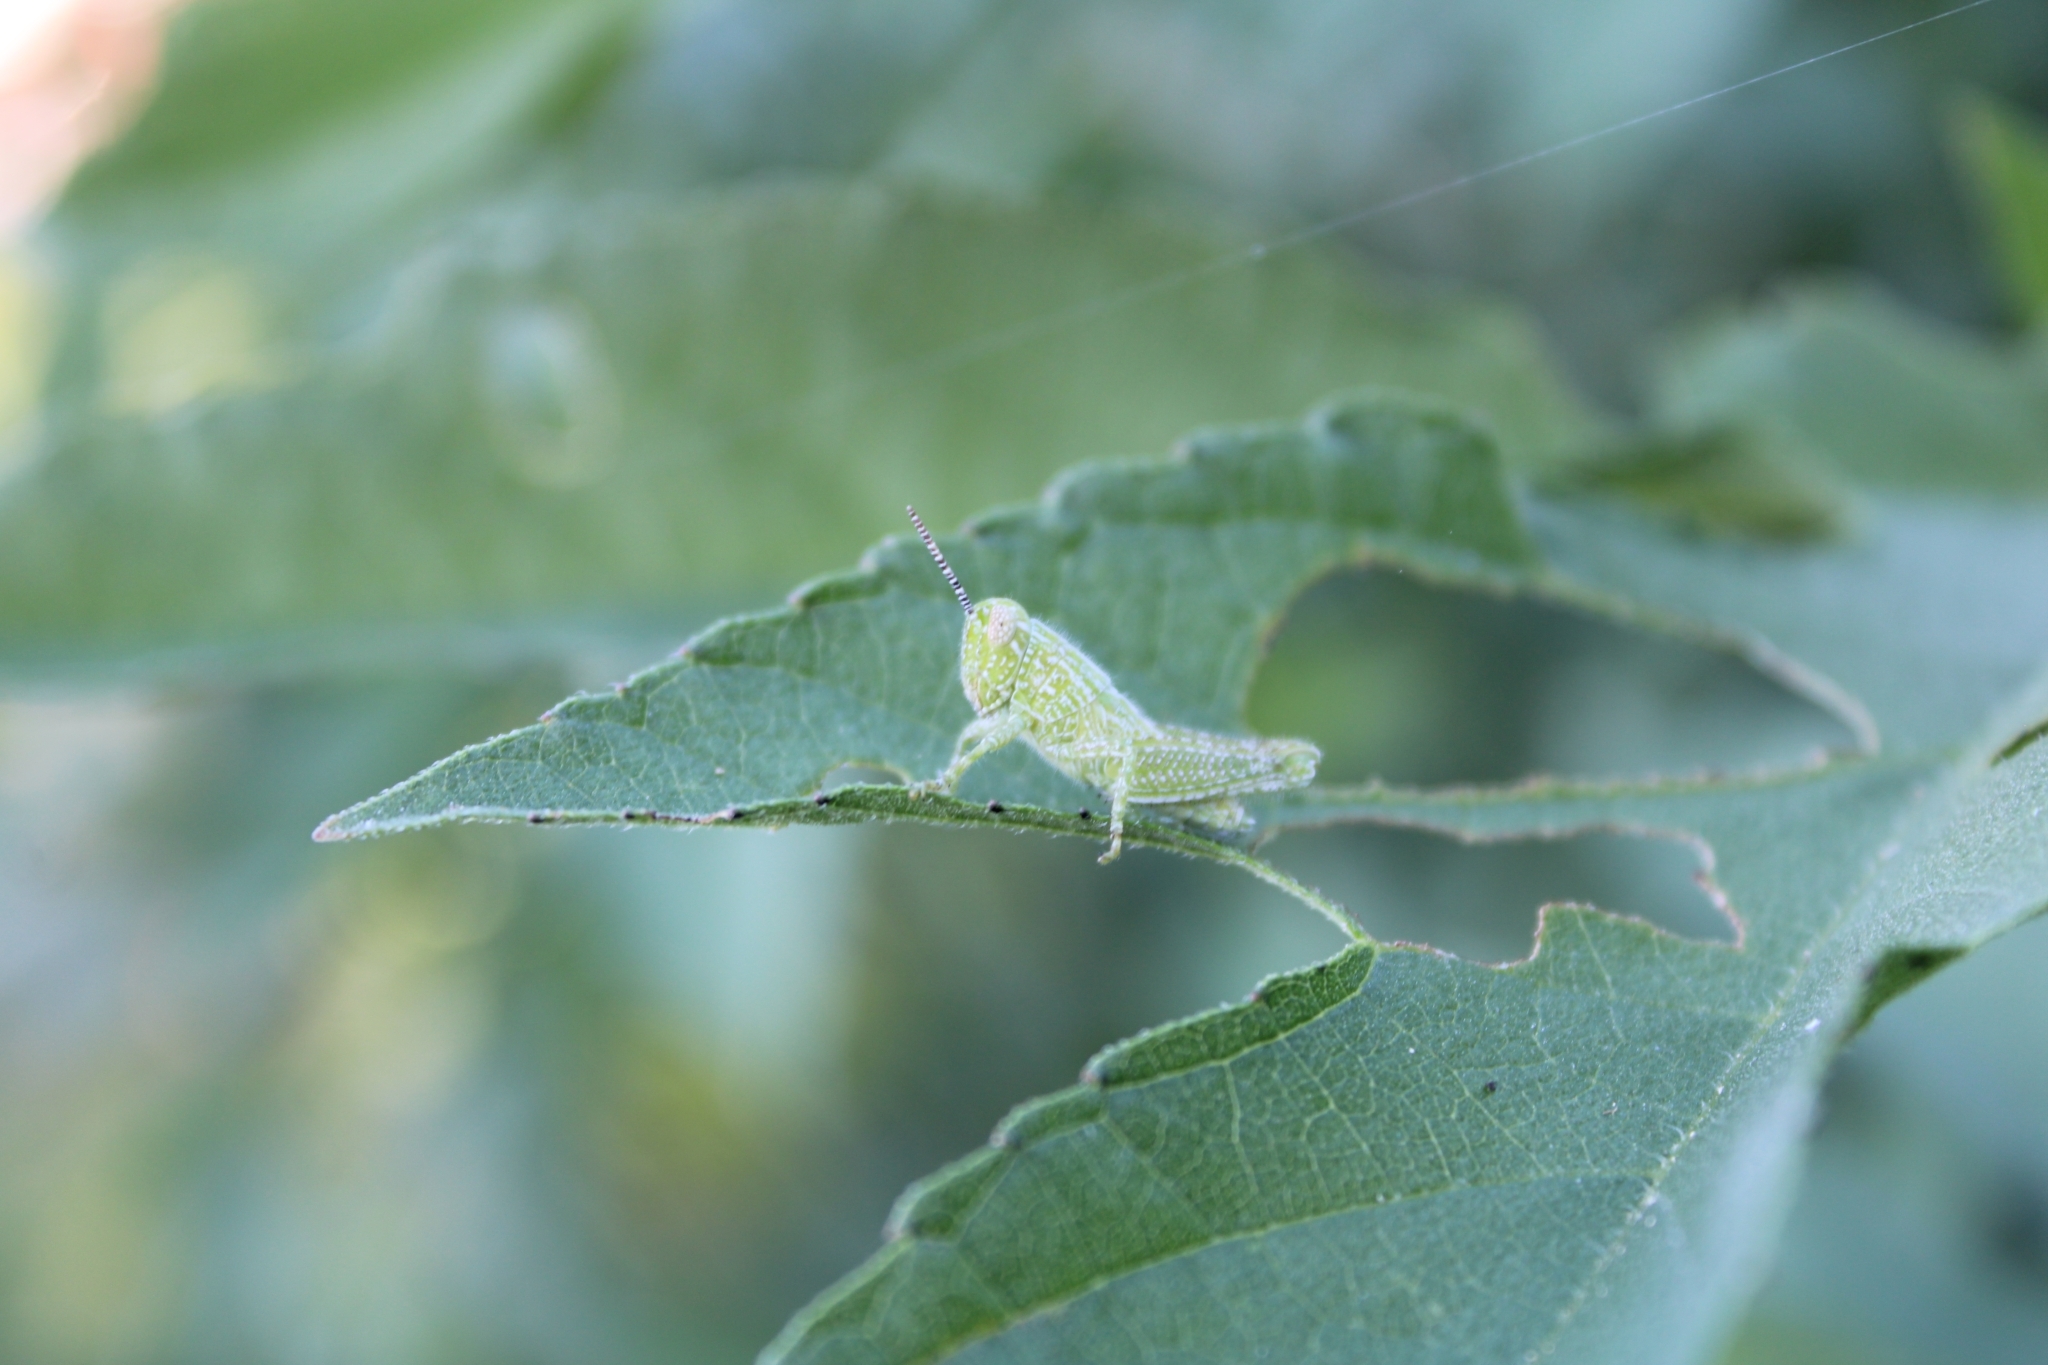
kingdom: Animalia
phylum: Arthropoda
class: Insecta
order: Orthoptera
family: Acrididae
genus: Campylacantha
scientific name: Campylacantha olivacea
